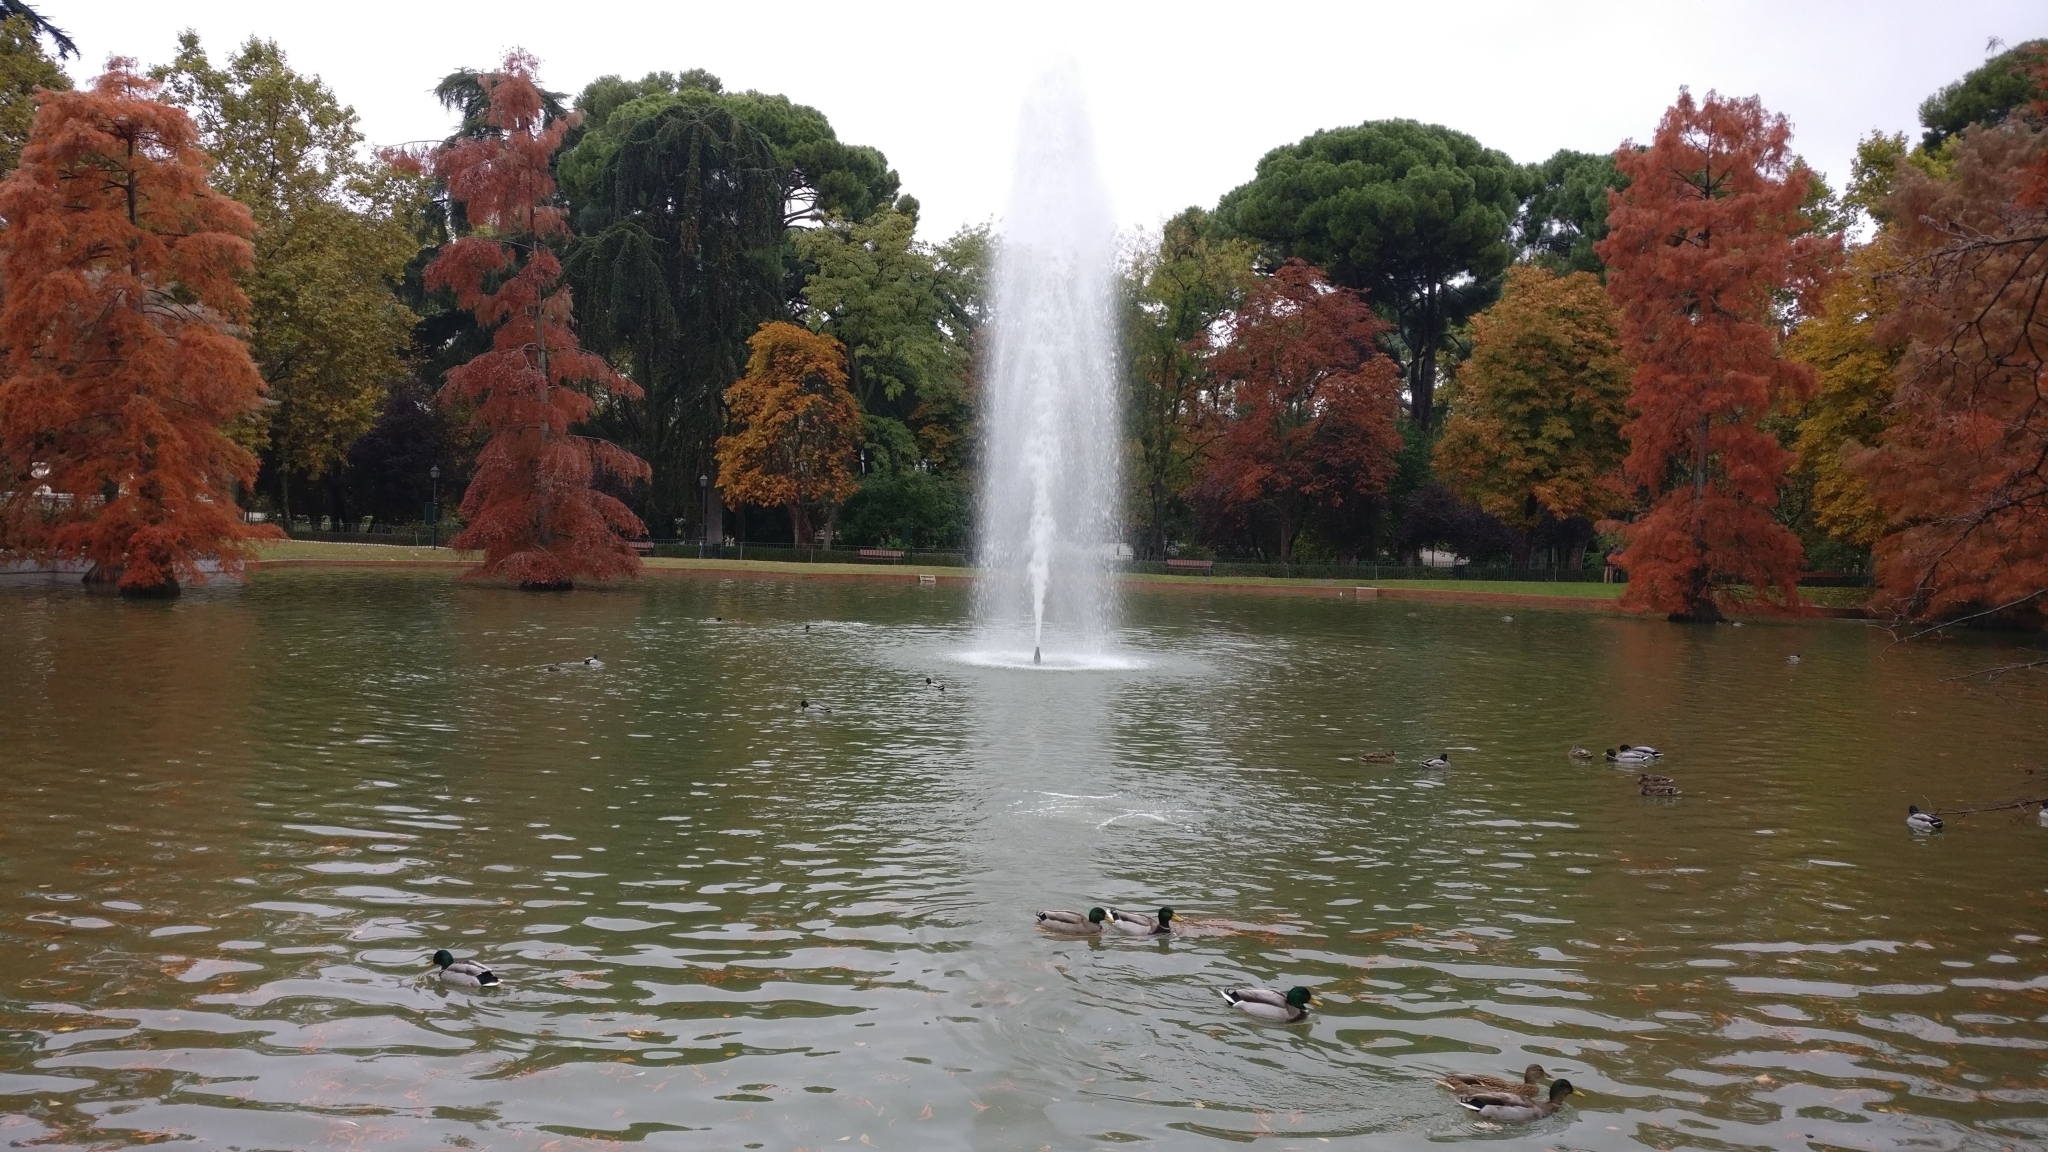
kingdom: Animalia
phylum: Chordata
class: Aves
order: Anseriformes
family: Anatidae
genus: Anas
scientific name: Anas platyrhynchos
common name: Mallard
